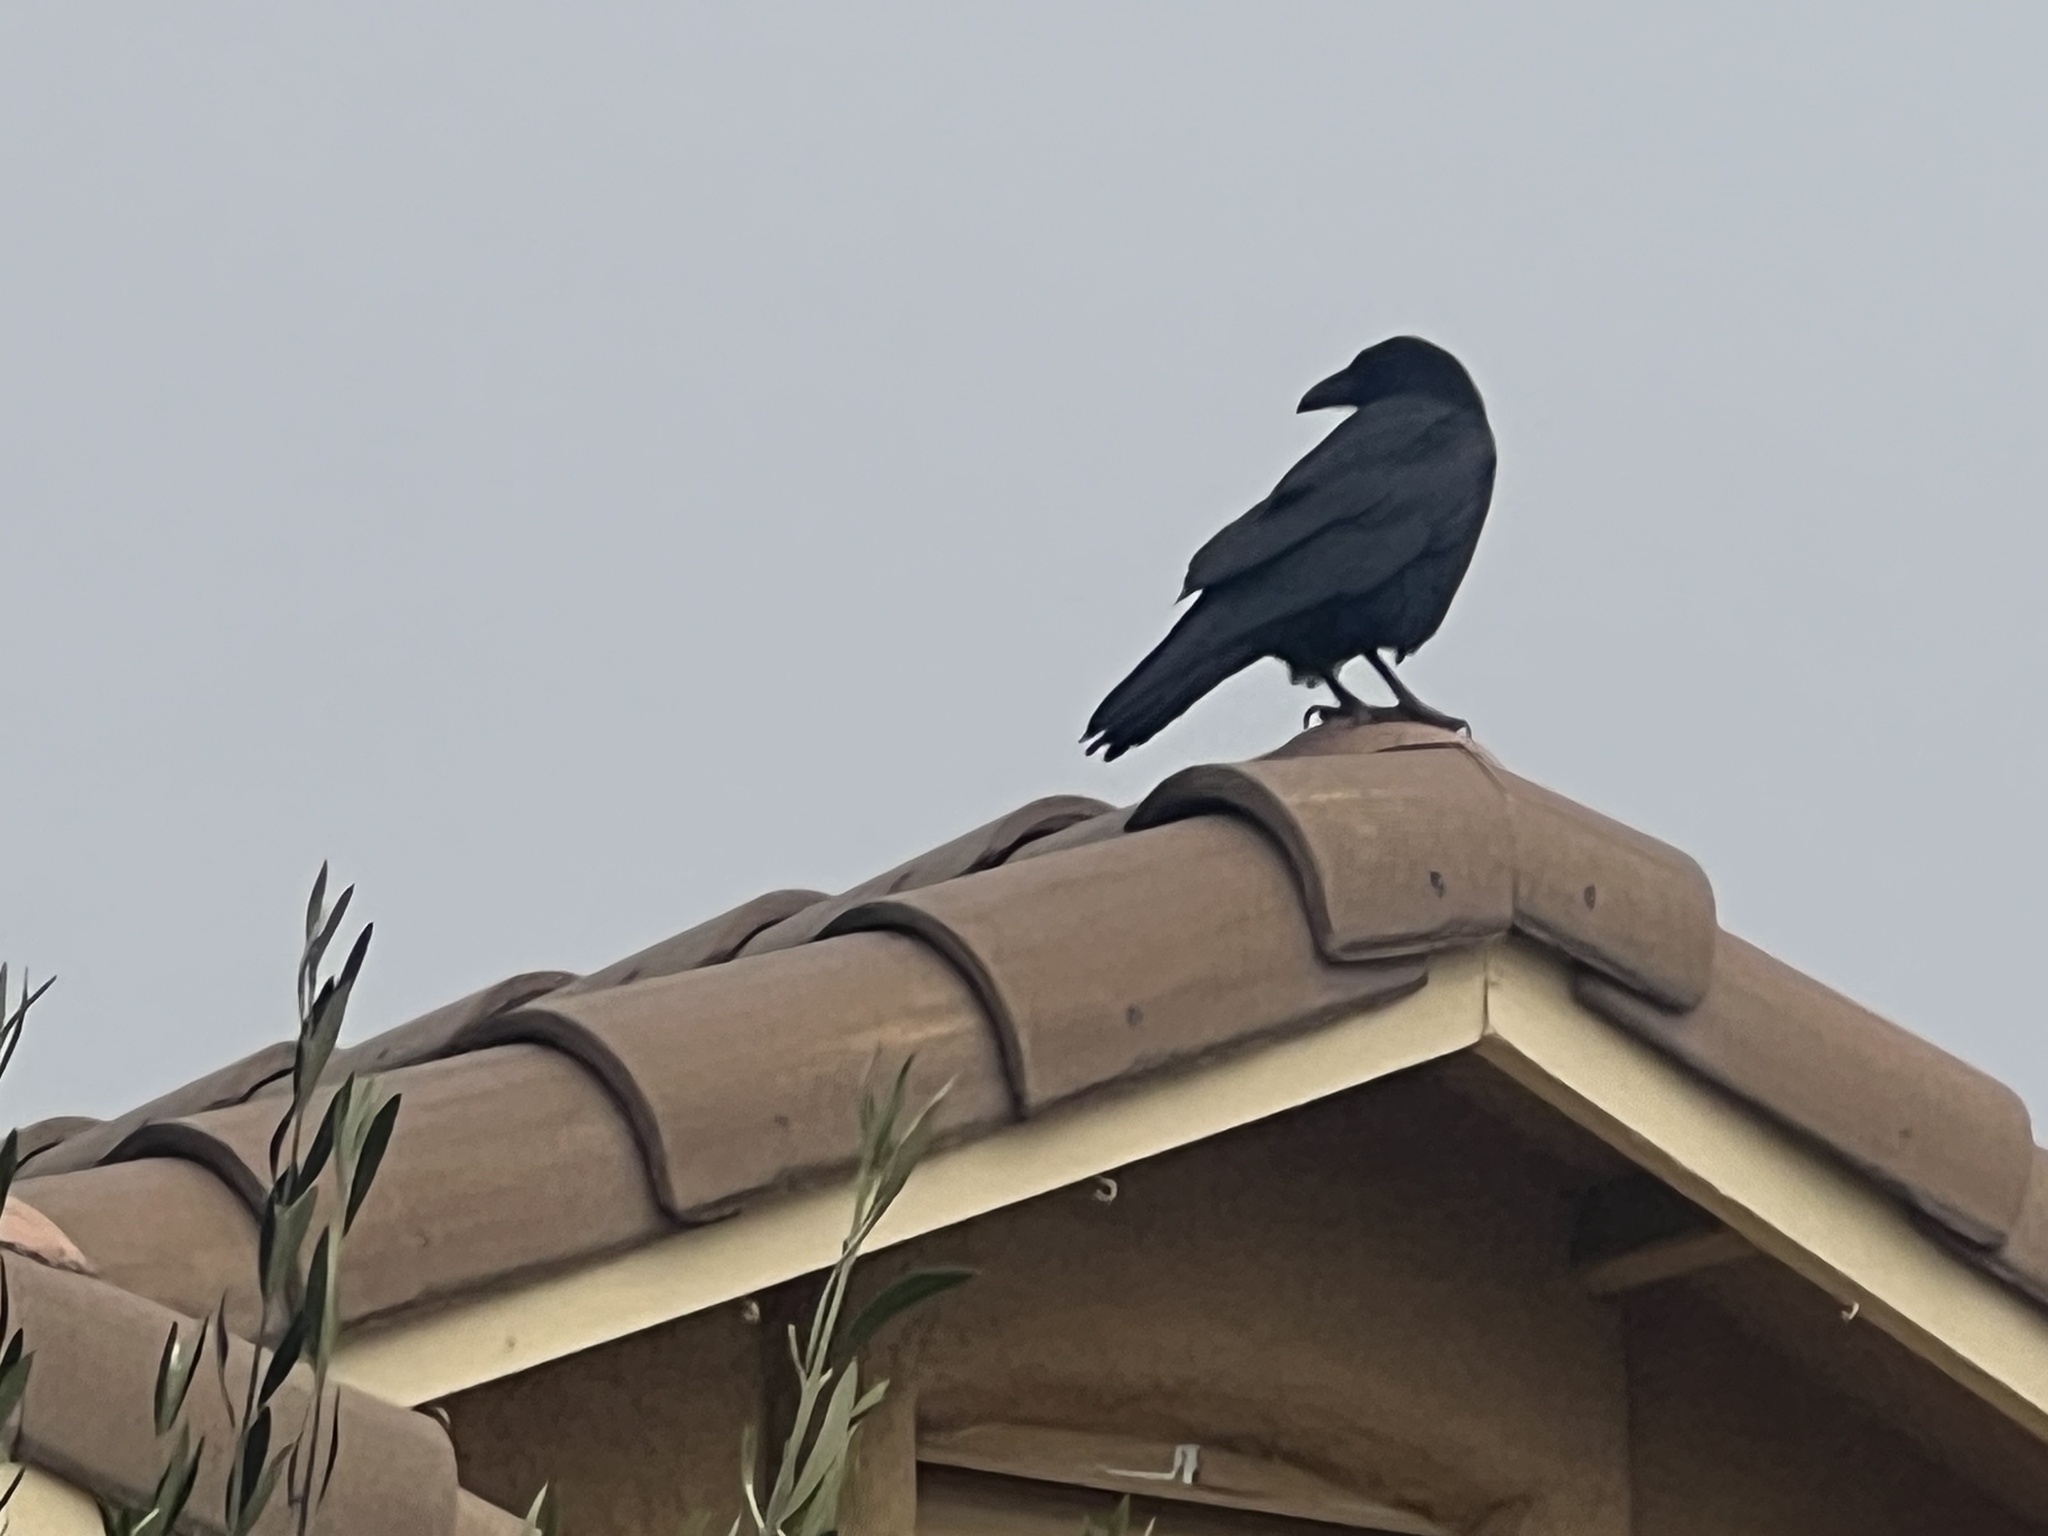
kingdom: Animalia
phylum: Chordata
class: Aves
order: Passeriformes
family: Corvidae
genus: Corvus
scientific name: Corvus corax
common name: Common raven
